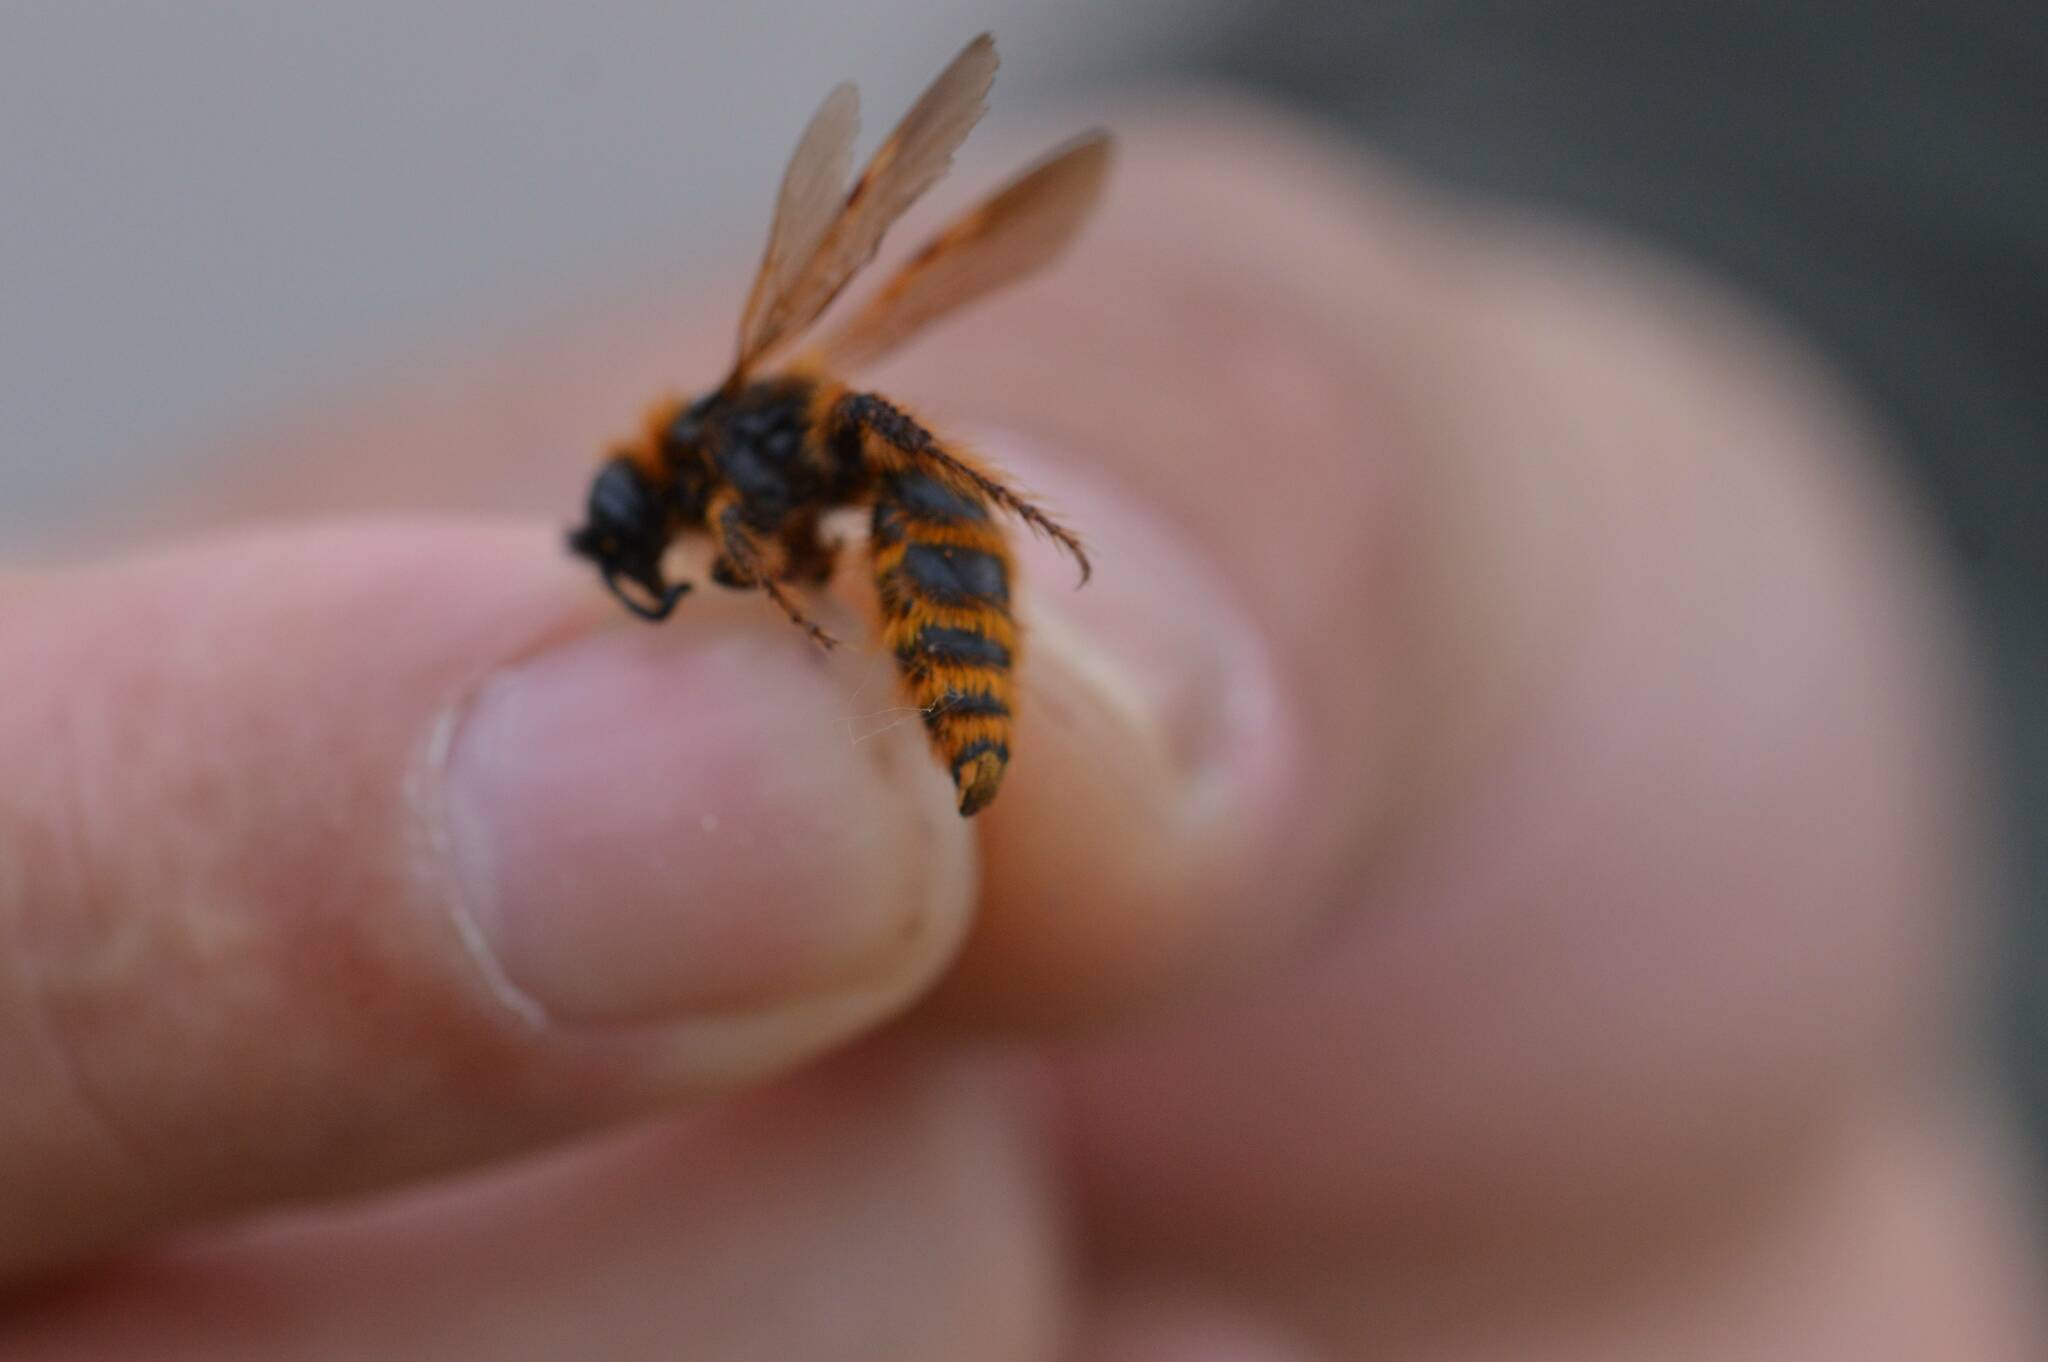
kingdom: Animalia
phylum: Arthropoda
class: Insecta
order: Hymenoptera
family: Scoliidae
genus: Dasyscolia
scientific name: Dasyscolia ciliata
